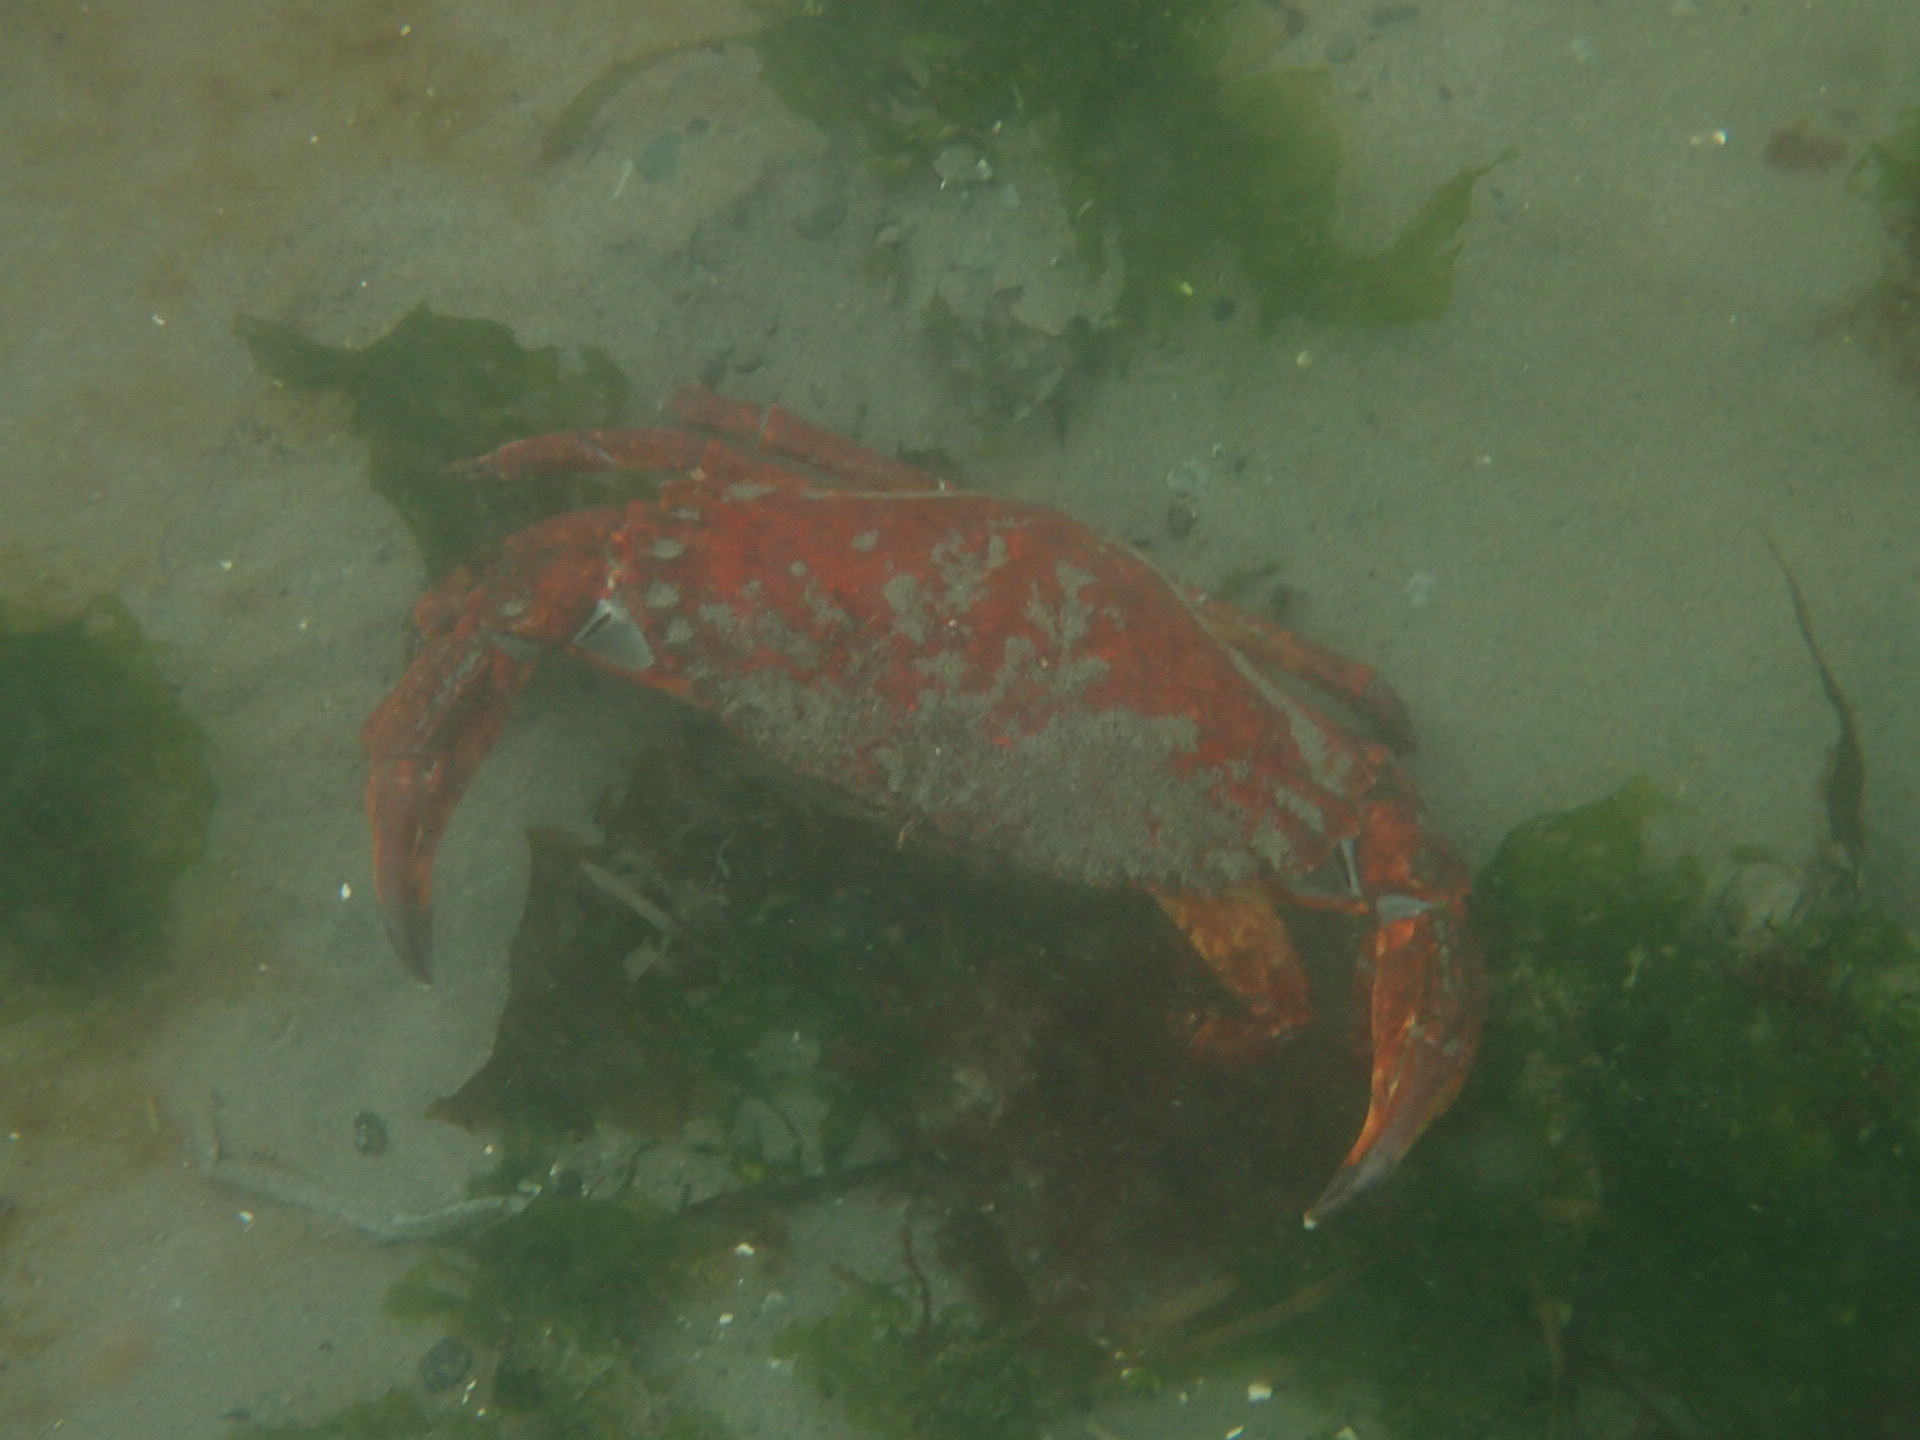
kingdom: Animalia
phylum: Arthropoda
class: Malacostraca
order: Decapoda
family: Cancridae
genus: Cancer
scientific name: Cancer productus
